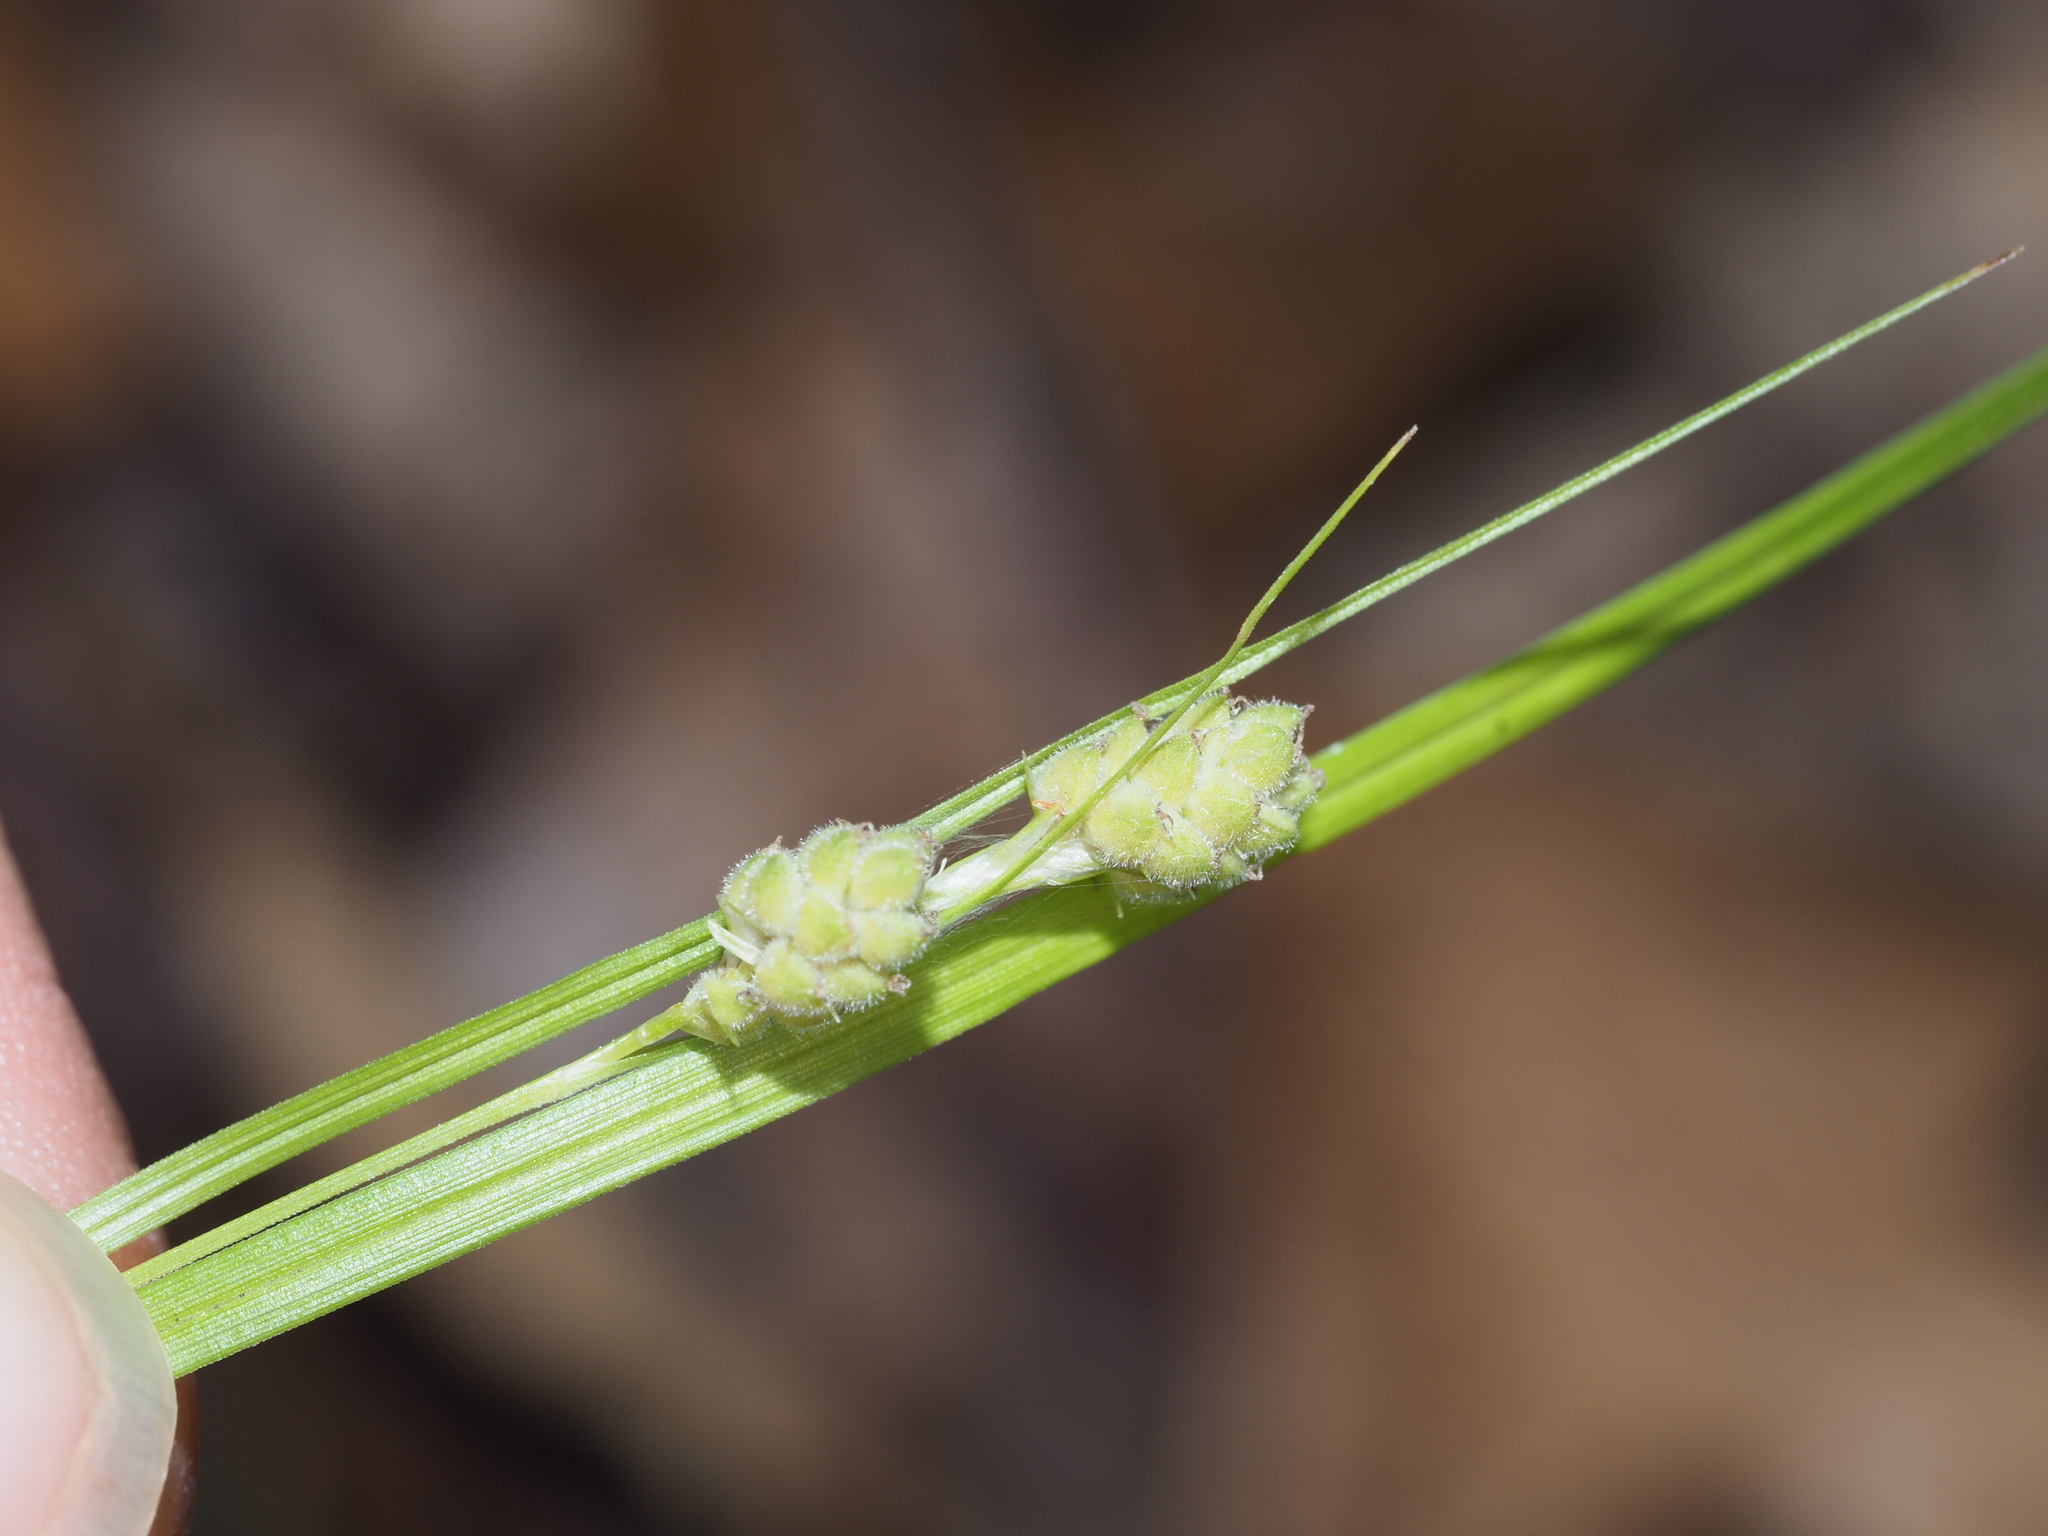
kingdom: Plantae
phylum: Tracheophyta
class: Liliopsida
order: Poales
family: Cyperaceae
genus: Carex
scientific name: Carex swanii
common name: Downy green sedge
